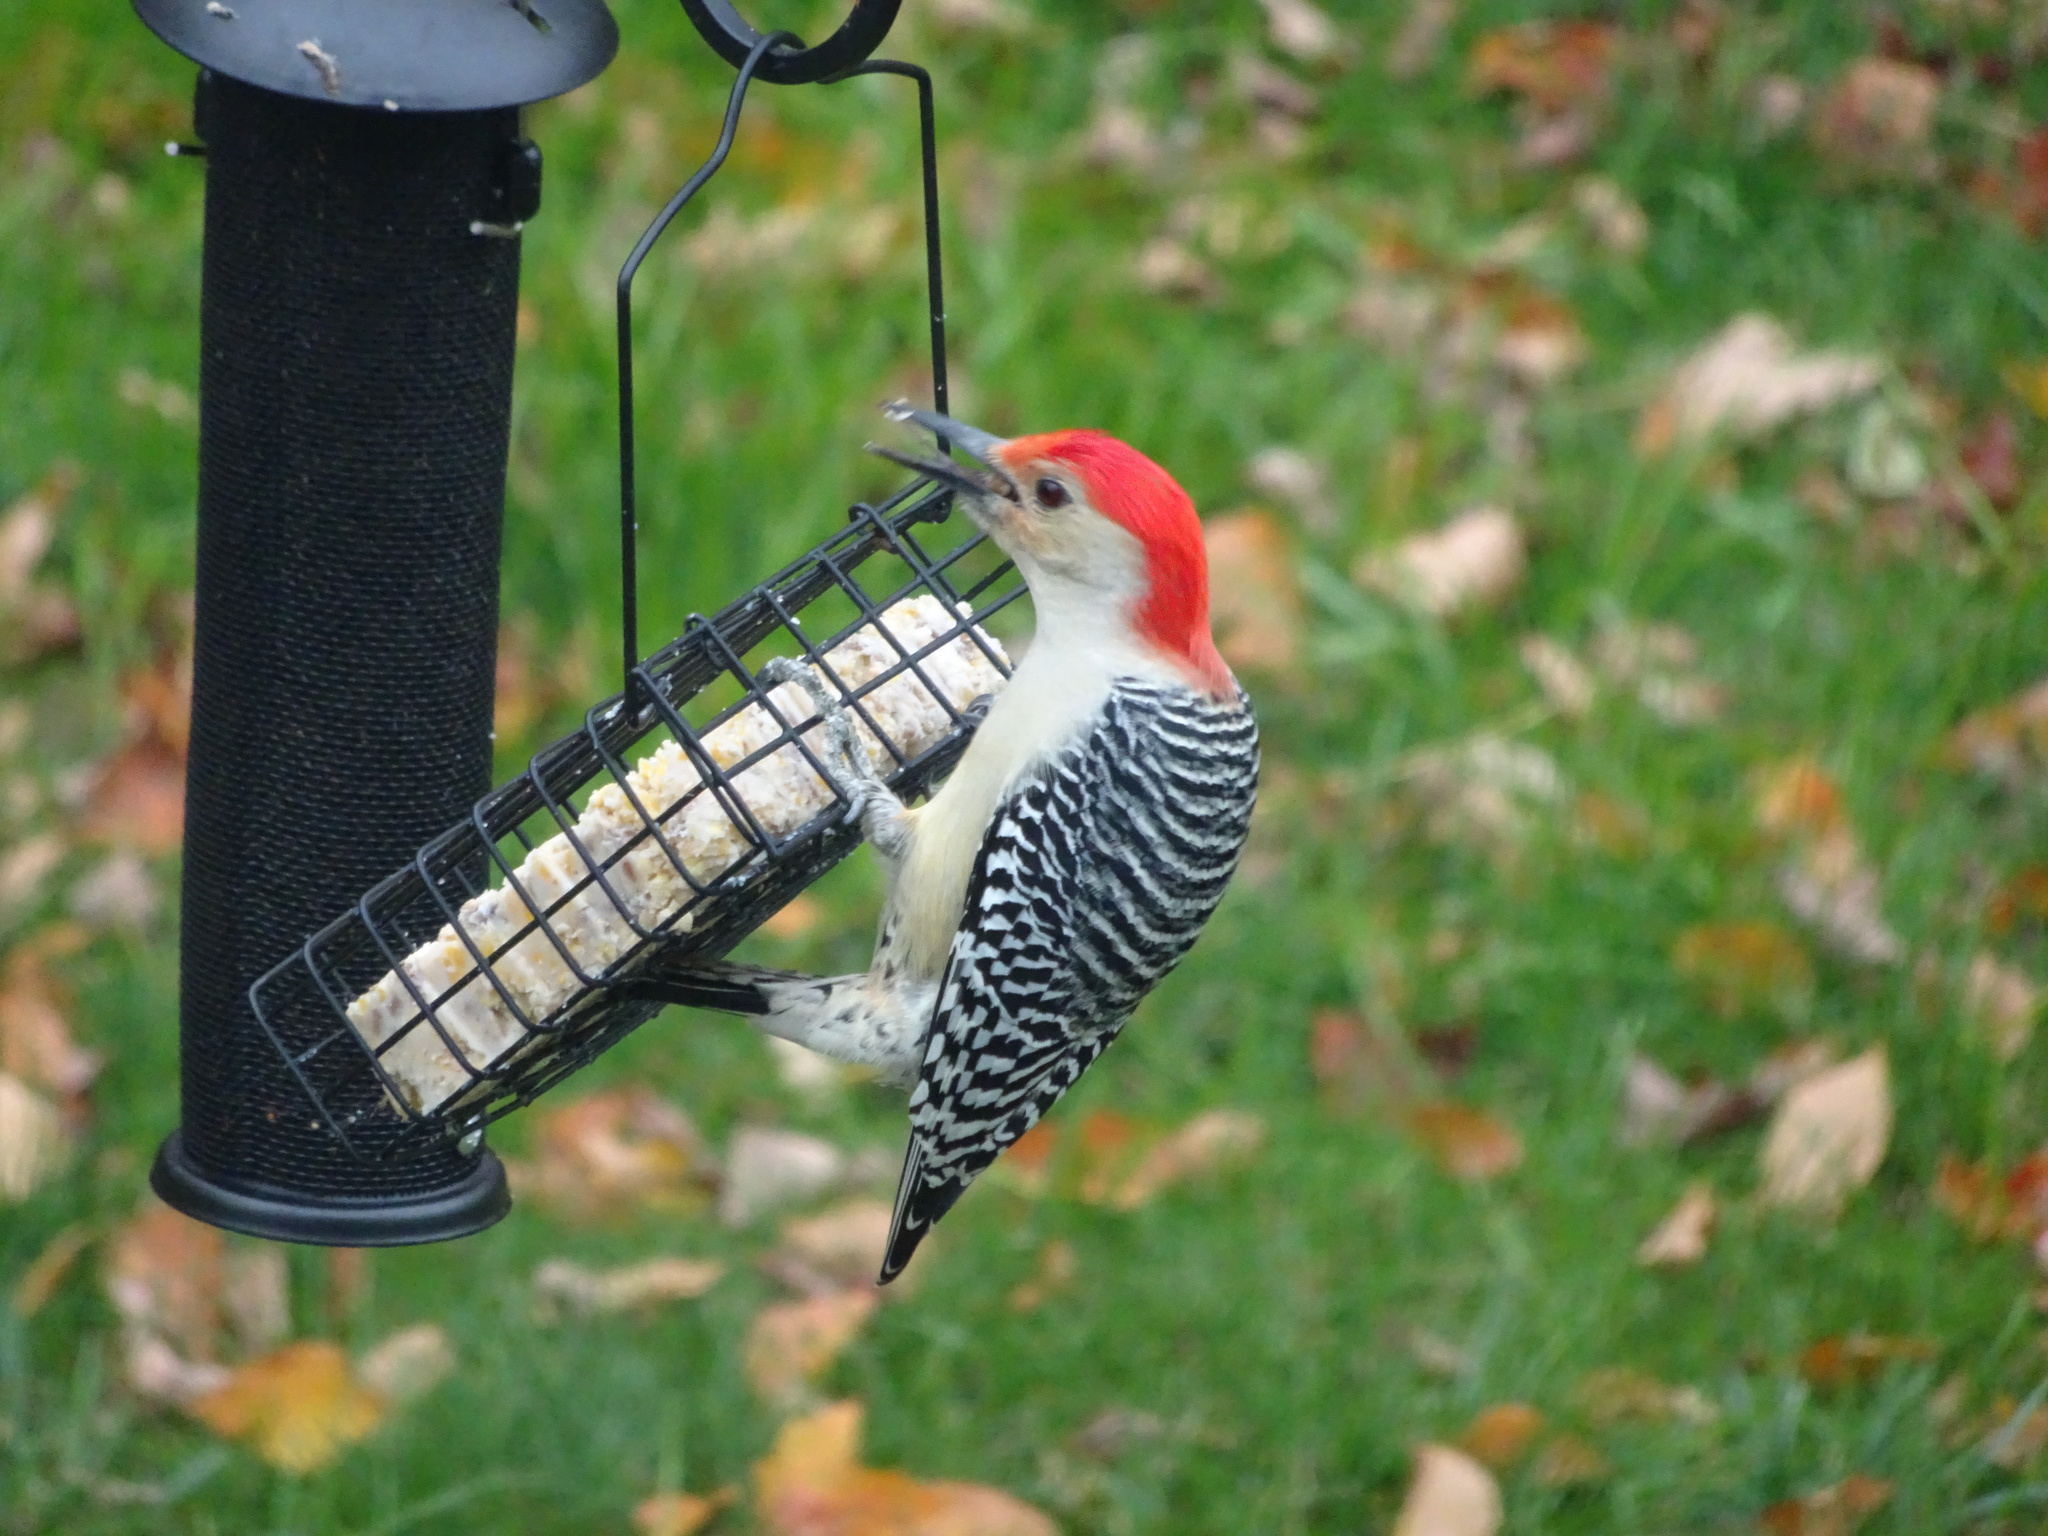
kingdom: Animalia
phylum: Chordata
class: Aves
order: Piciformes
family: Picidae
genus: Melanerpes
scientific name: Melanerpes carolinus
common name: Red-bellied woodpecker
